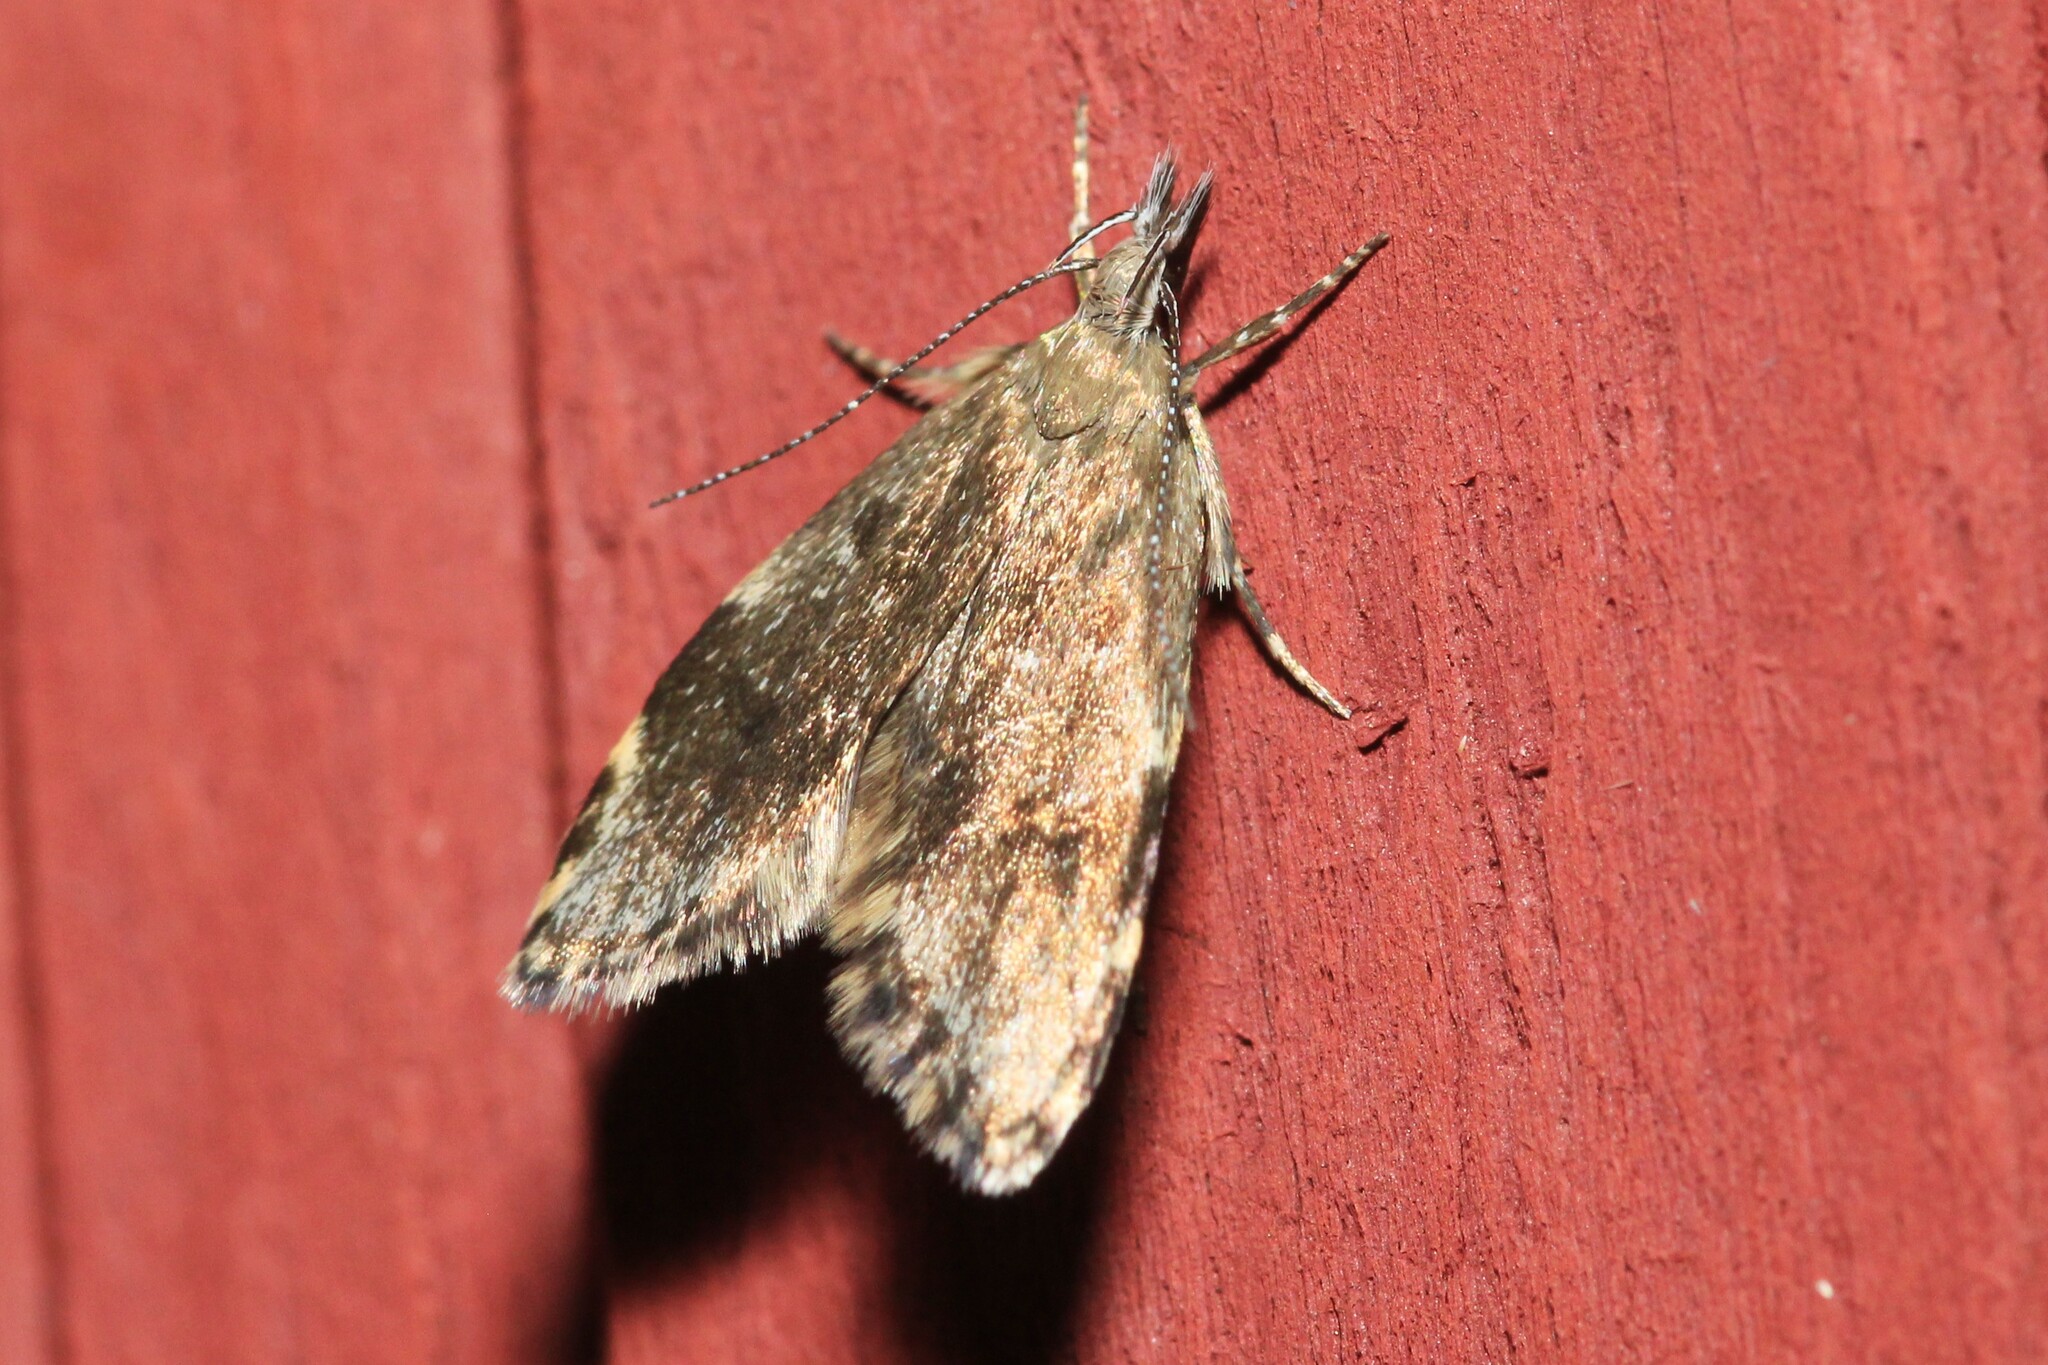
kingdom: Animalia
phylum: Arthropoda
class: Insecta
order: Lepidoptera
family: Oecophoridae
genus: Eido
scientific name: Eido trimaculella
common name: Three-spotted concealer
